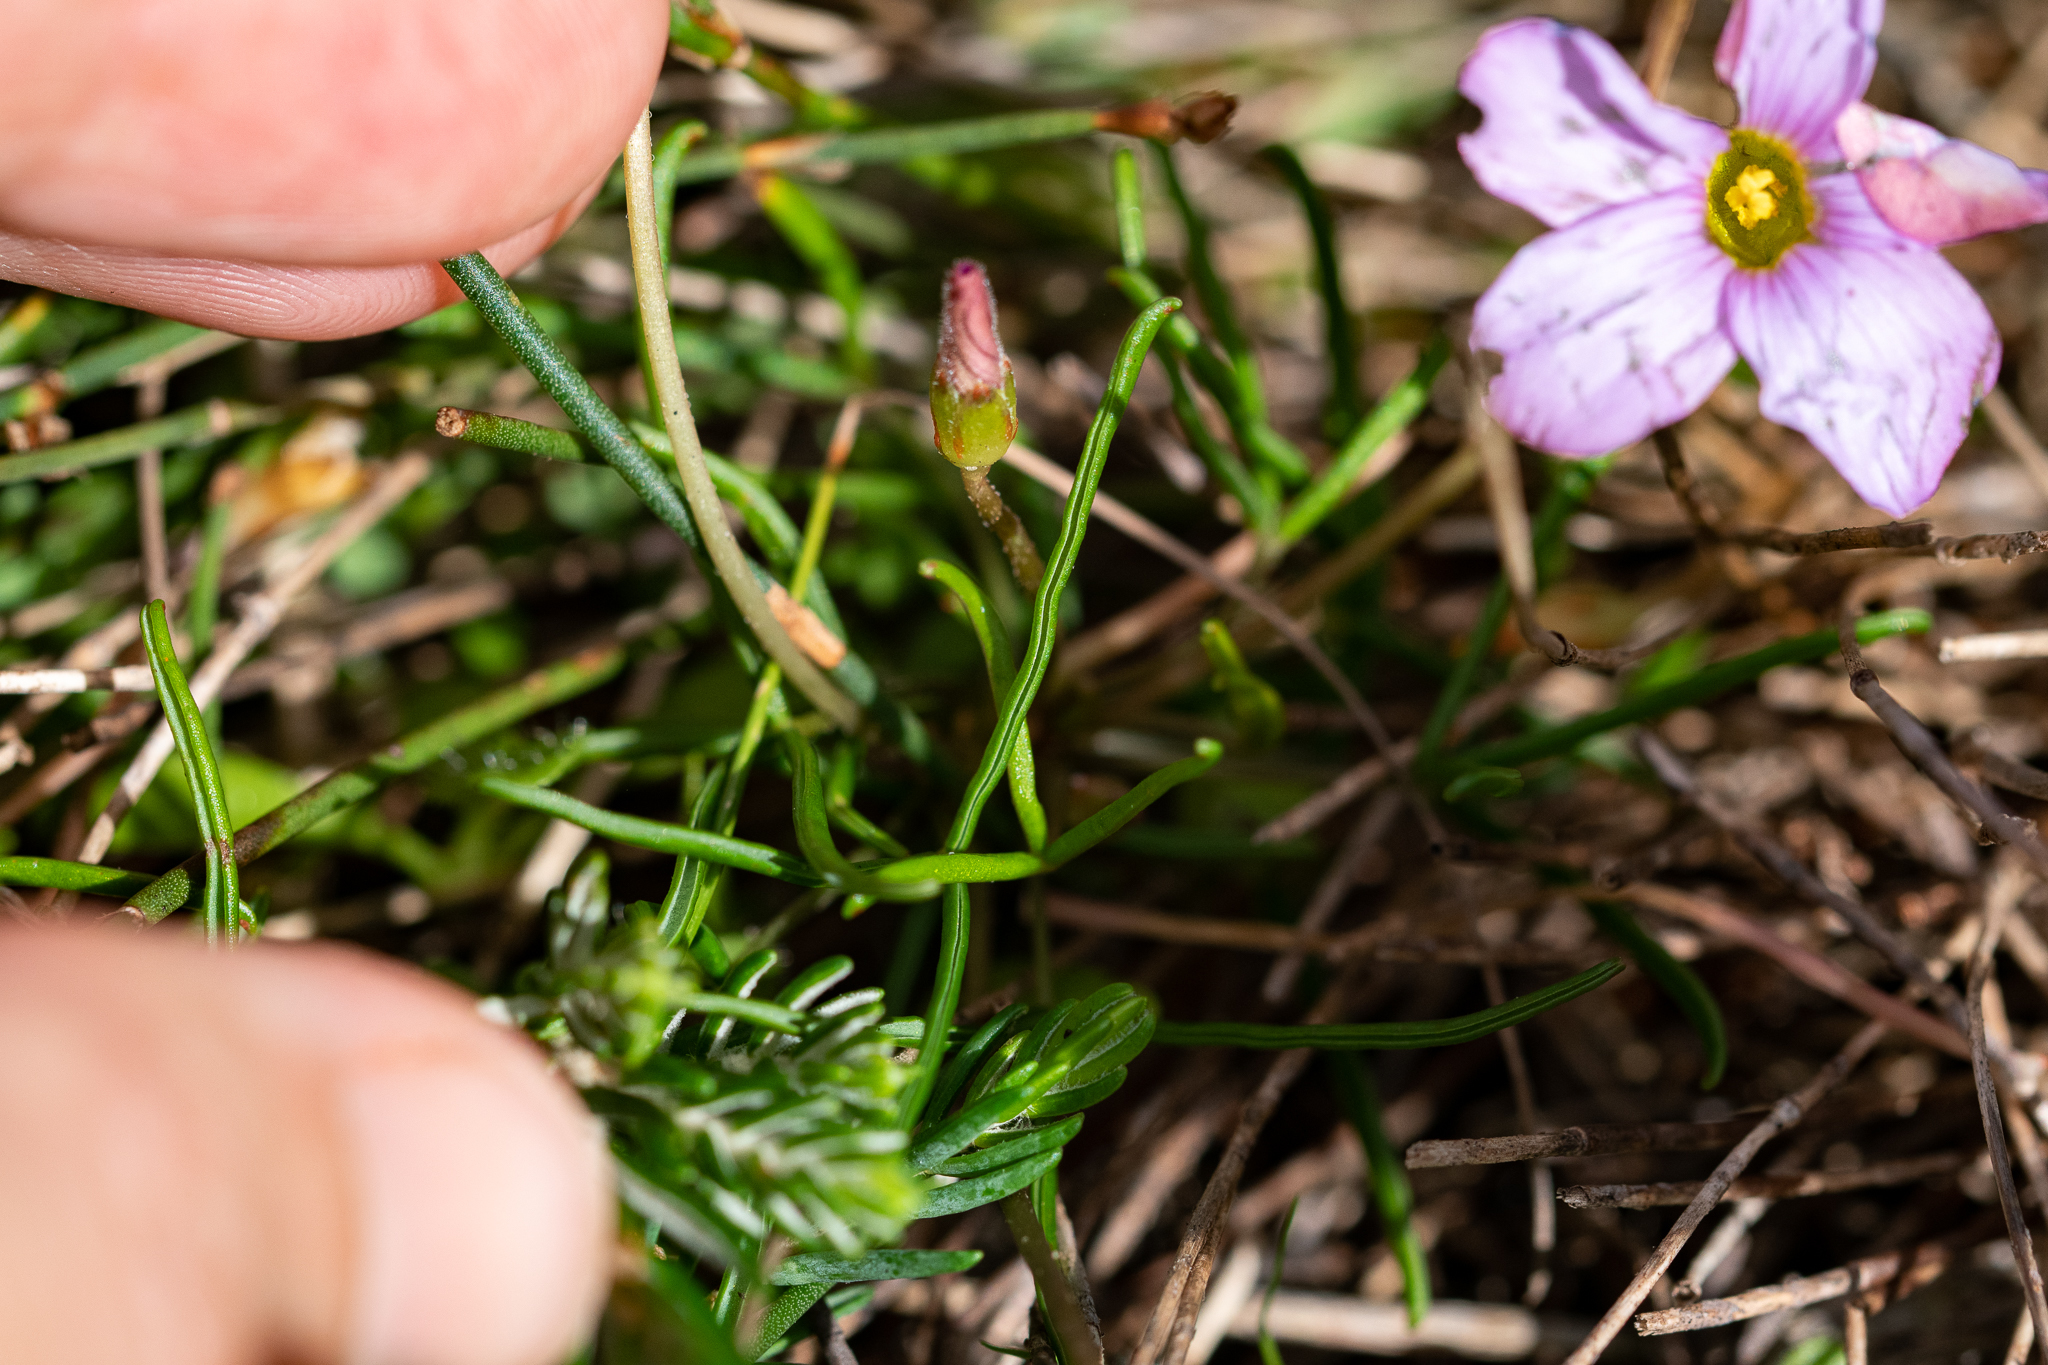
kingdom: Plantae
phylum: Tracheophyta
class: Magnoliopsida
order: Oxalidales
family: Oxalidaceae
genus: Oxalis
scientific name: Oxalis polyphylla
